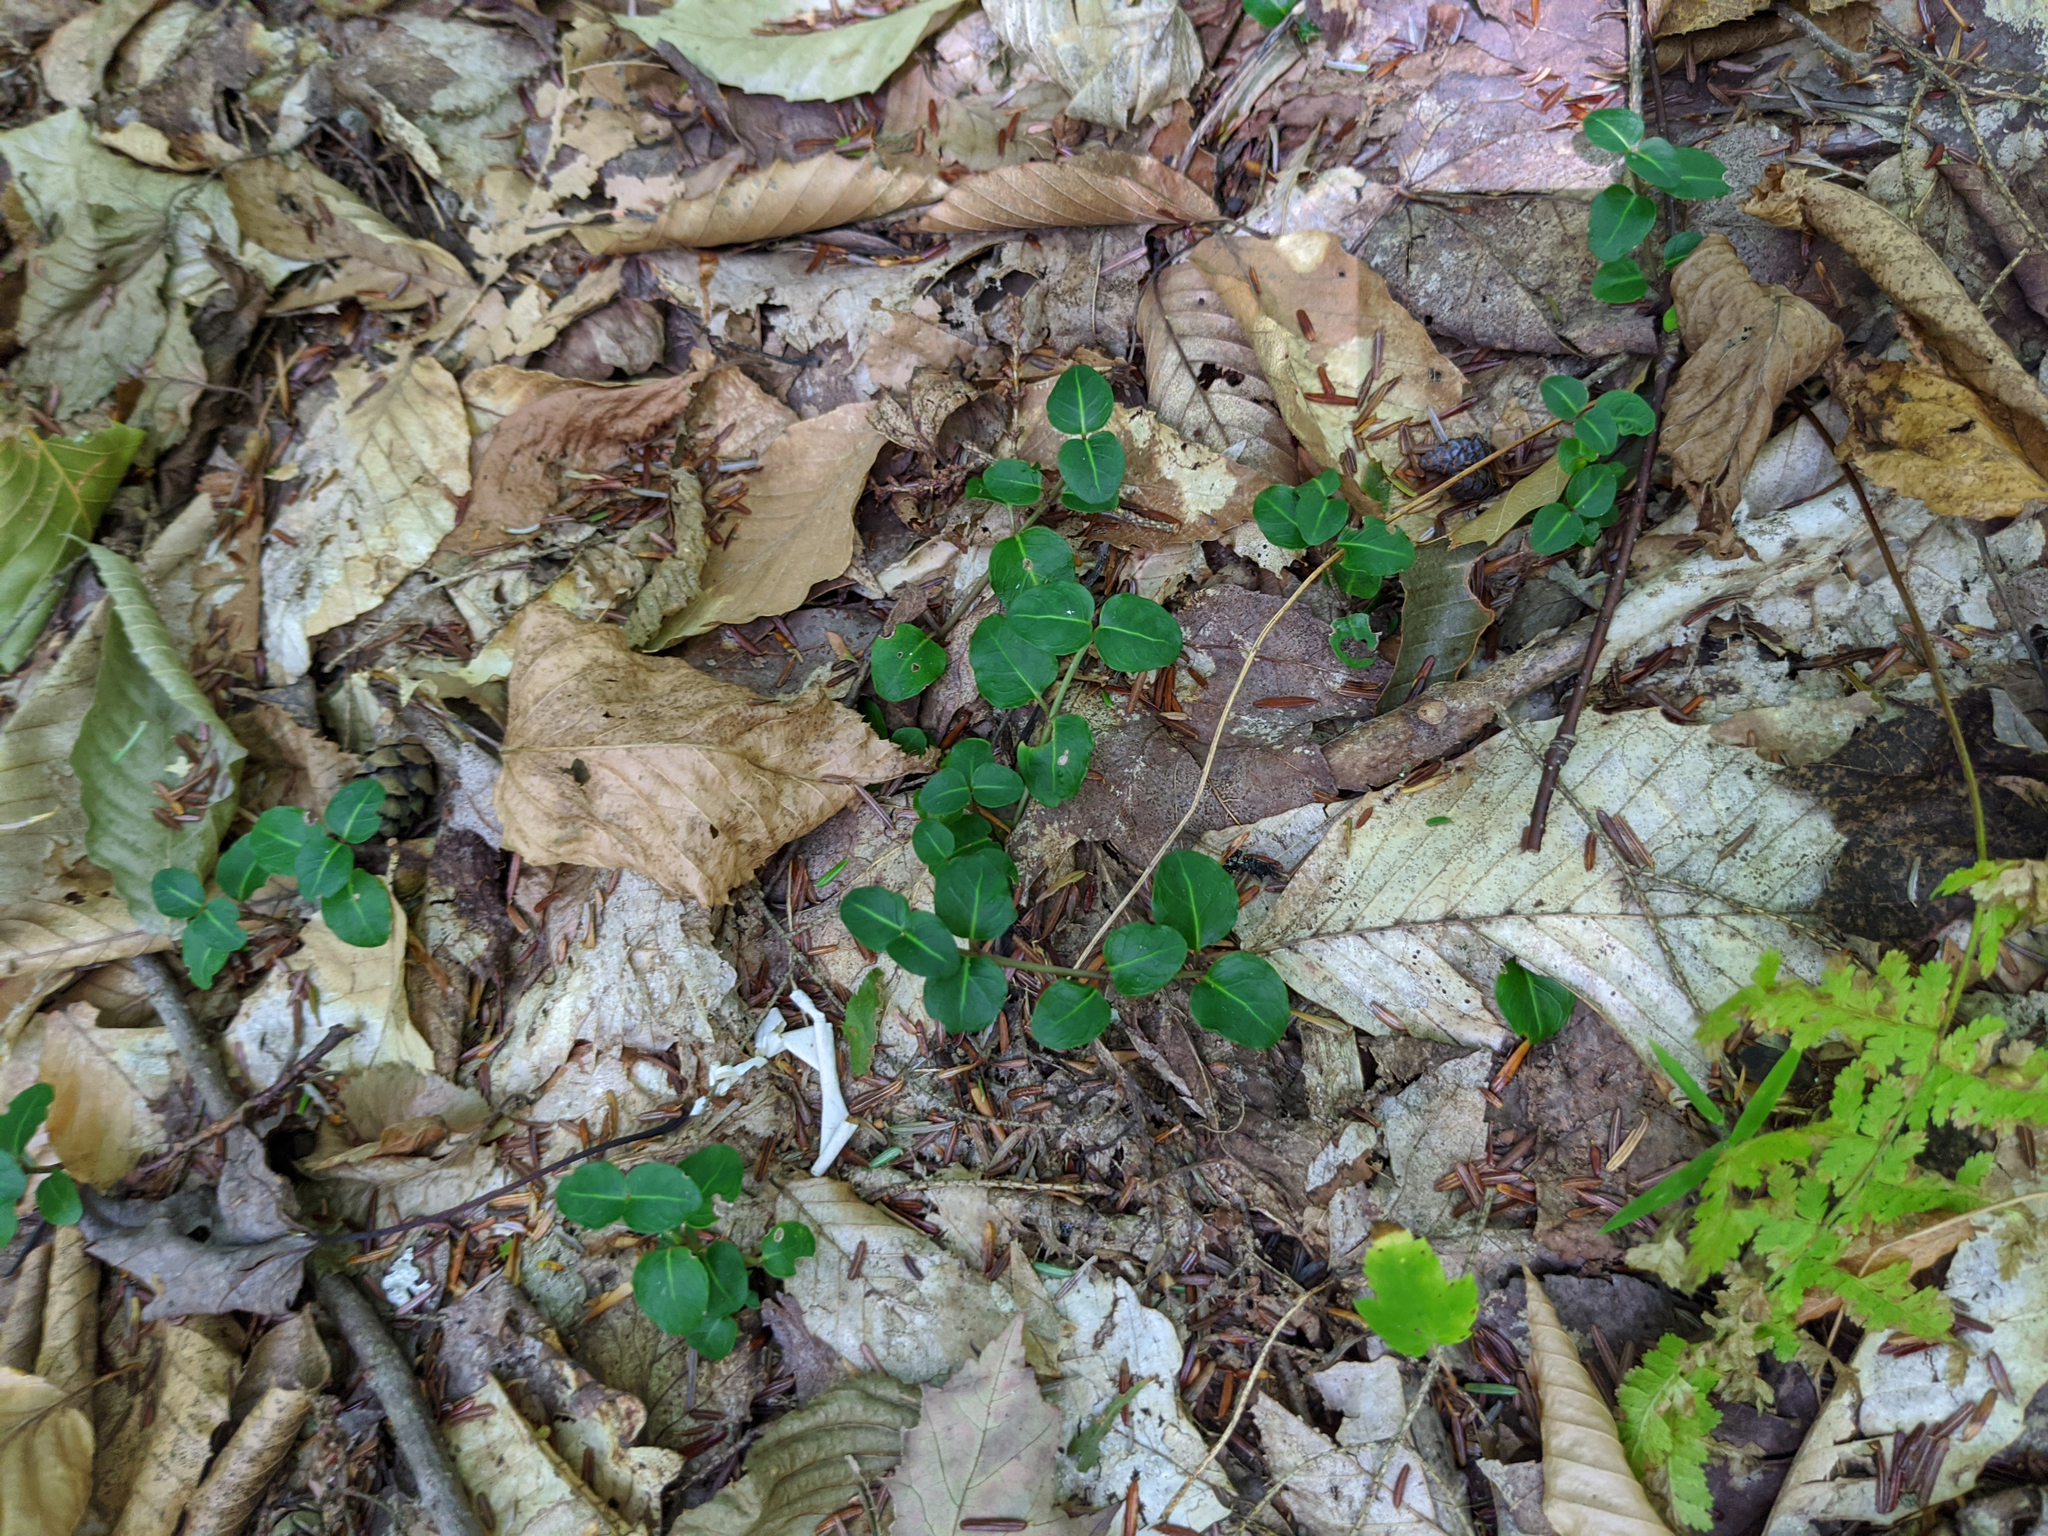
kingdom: Plantae
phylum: Tracheophyta
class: Magnoliopsida
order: Gentianales
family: Rubiaceae
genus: Mitchella
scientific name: Mitchella repens
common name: Partridge-berry
